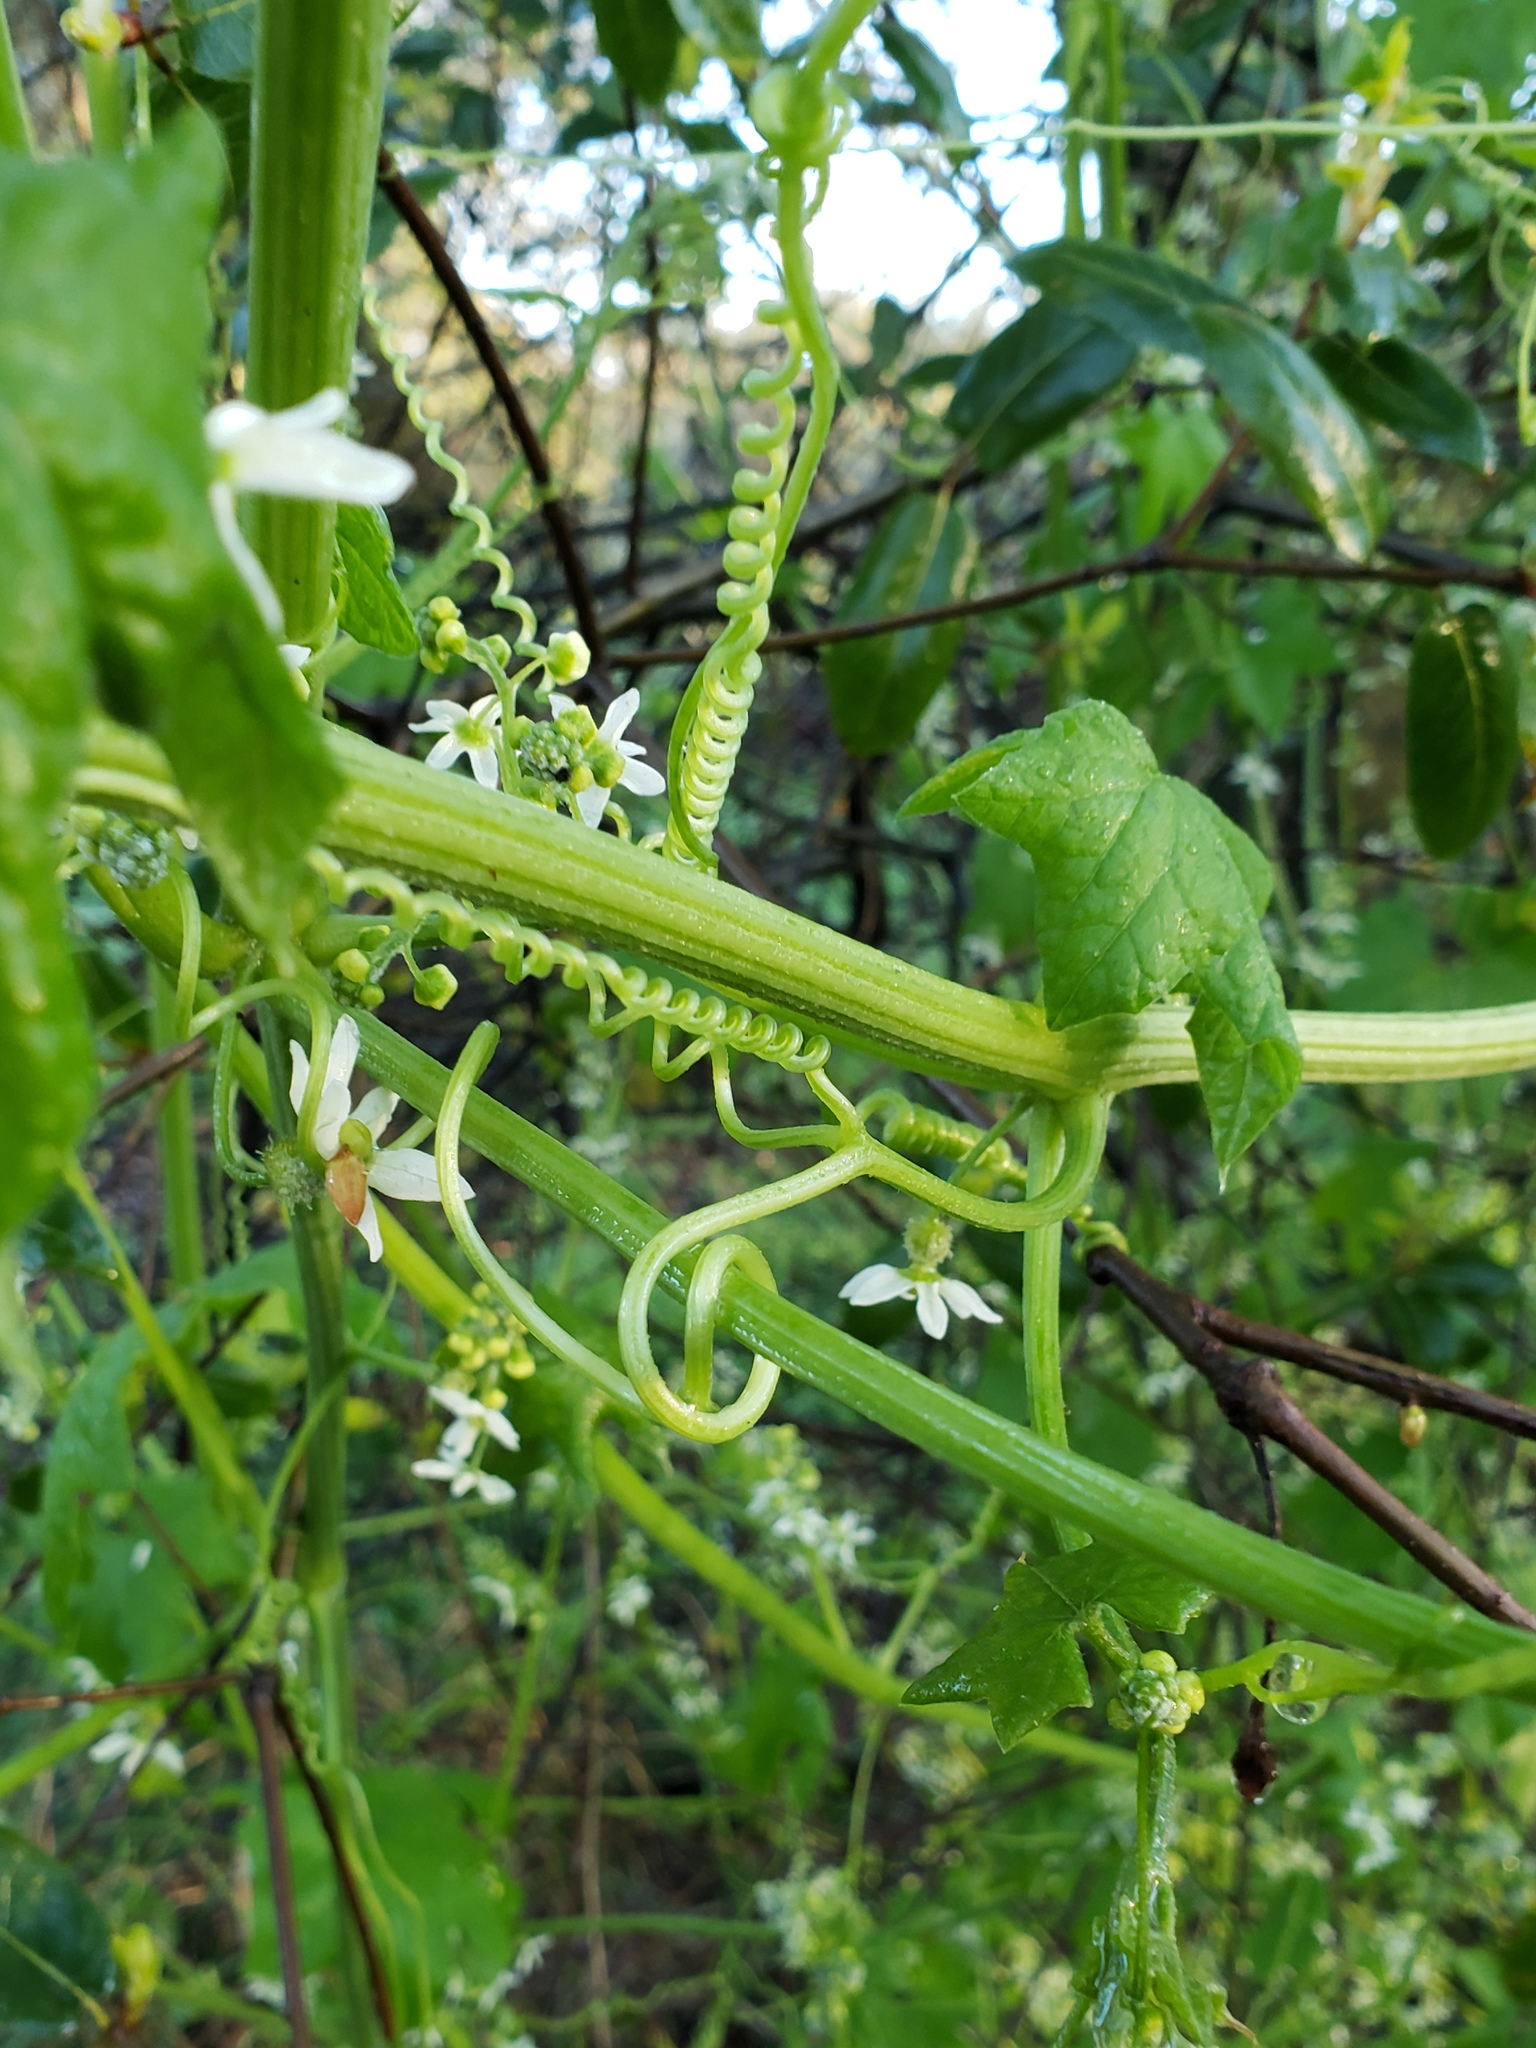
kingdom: Plantae
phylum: Tracheophyta
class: Magnoliopsida
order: Cucurbitales
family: Cucurbitaceae
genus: Marah
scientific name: Marah fabacea
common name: California manroot
